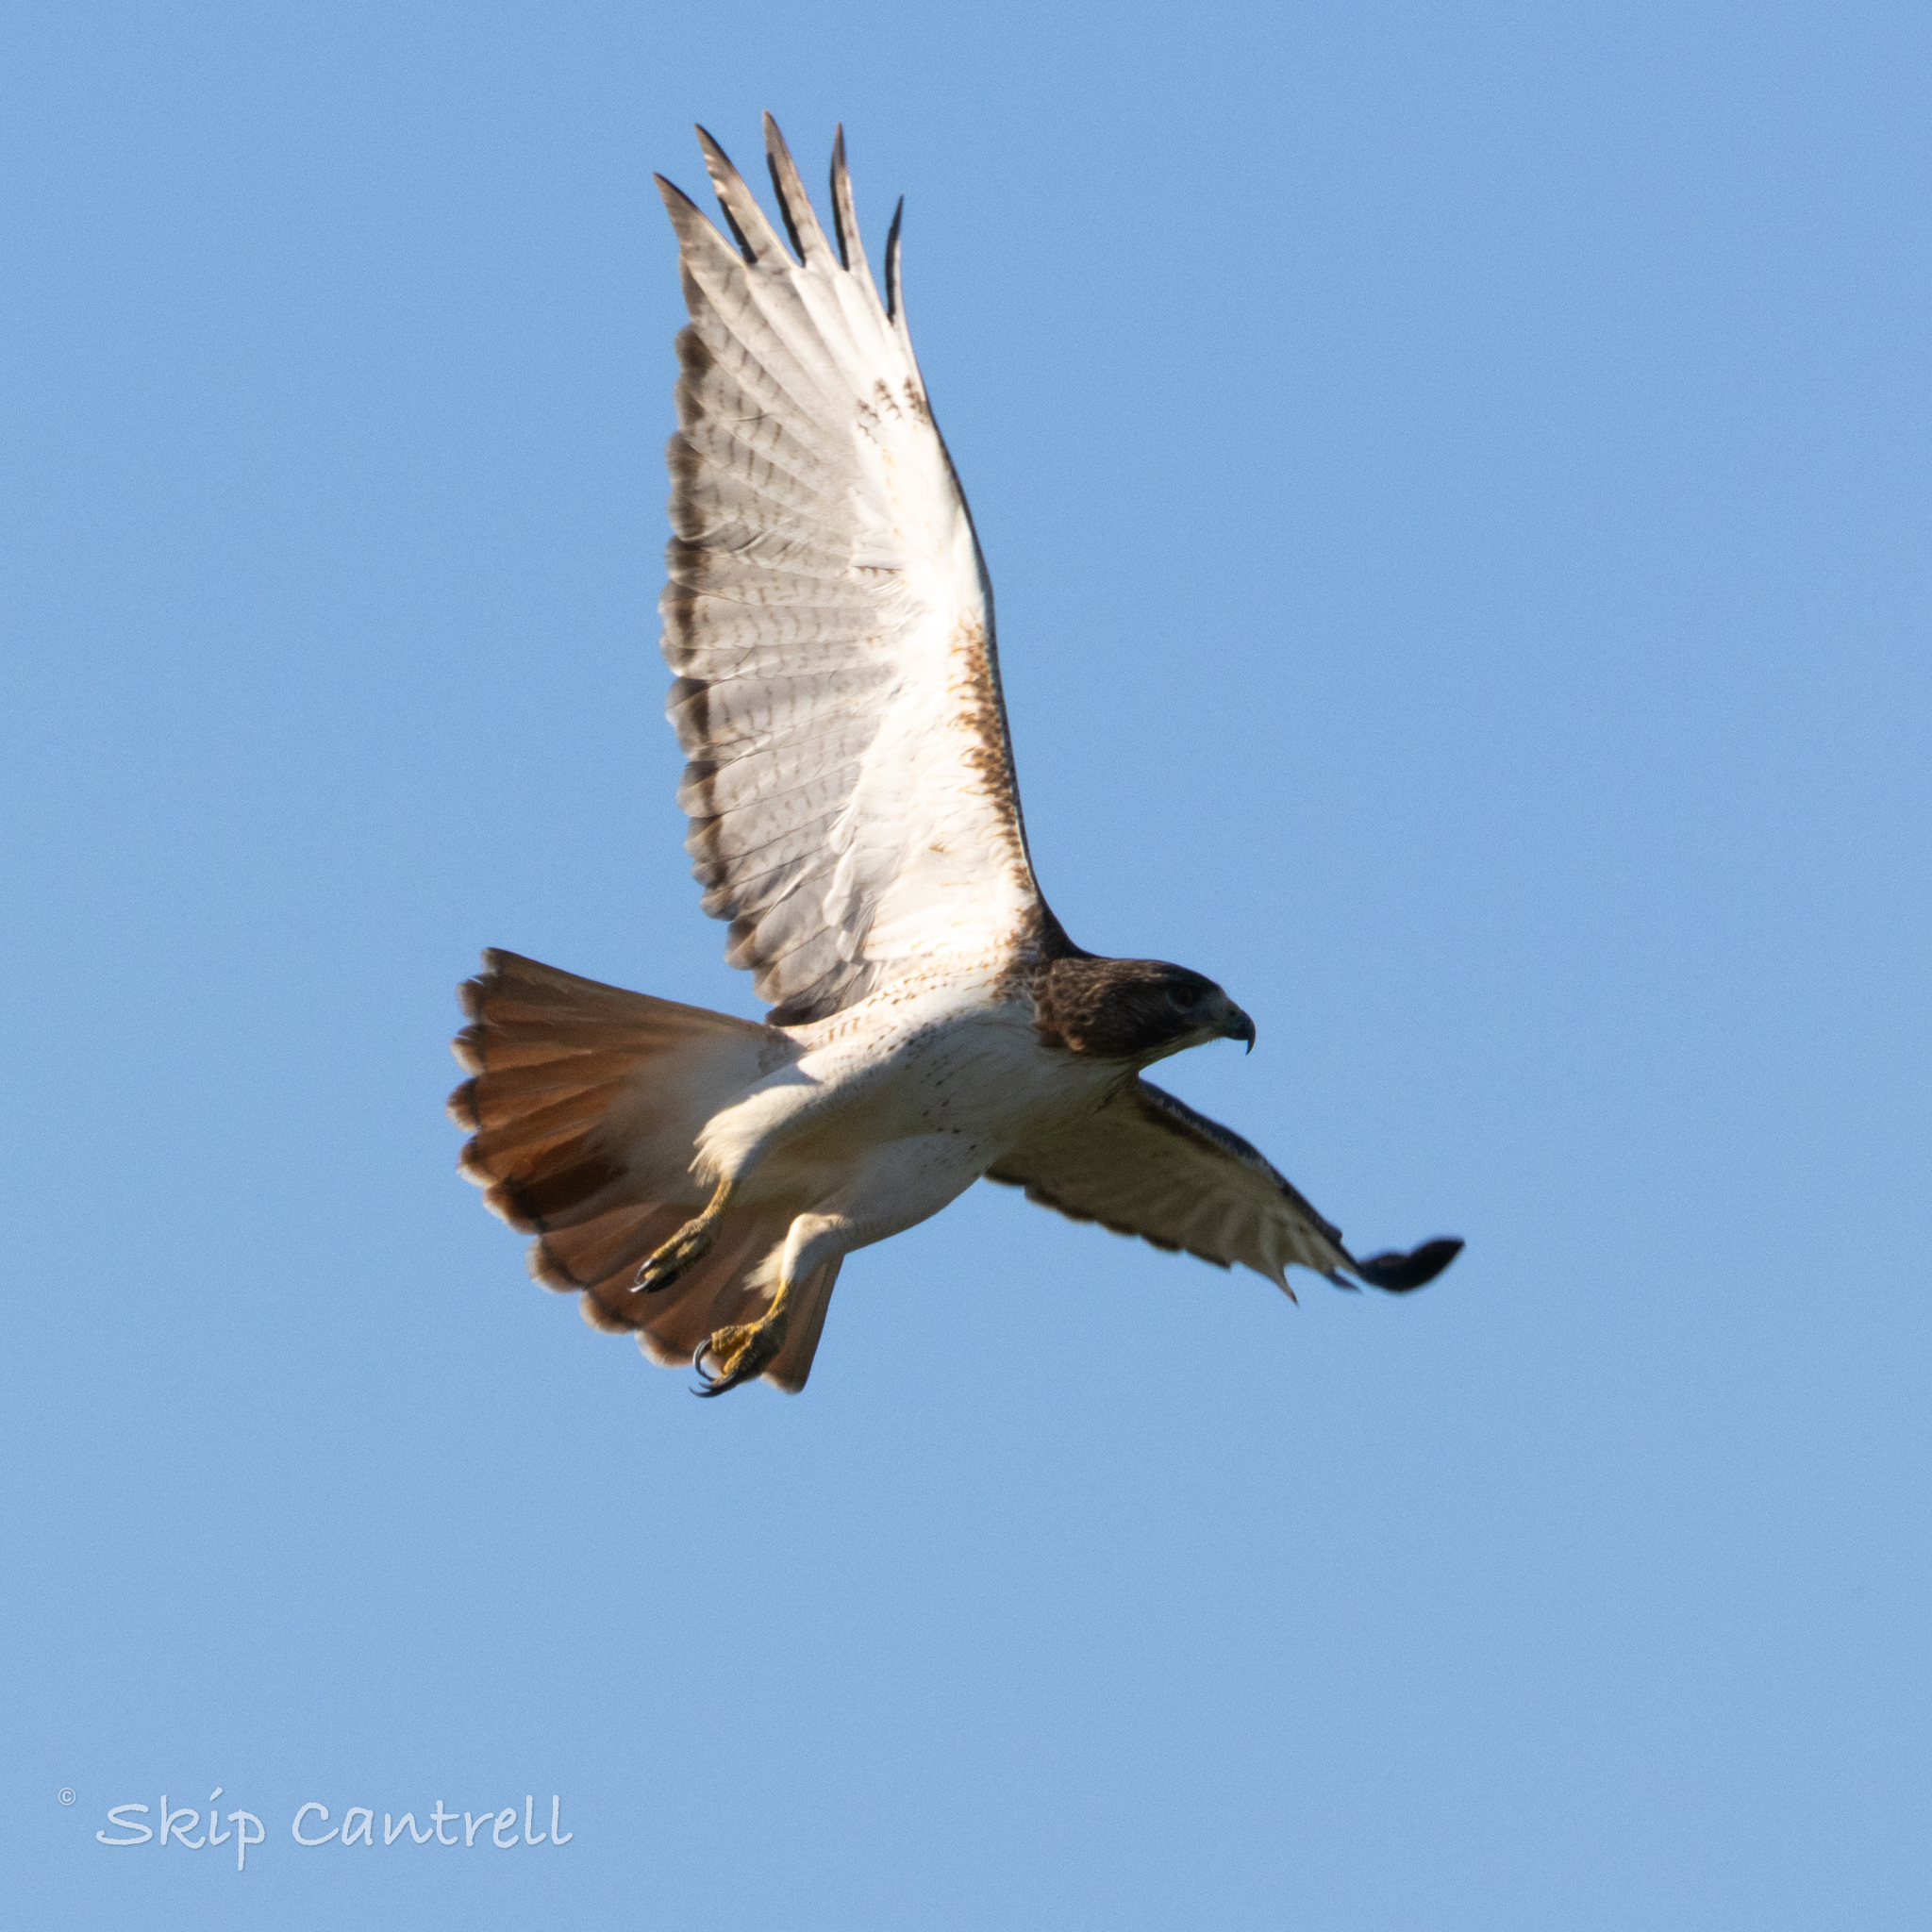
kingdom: Animalia
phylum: Chordata
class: Aves
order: Accipitriformes
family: Accipitridae
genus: Buteo
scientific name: Buteo jamaicensis
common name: Red-tailed hawk
